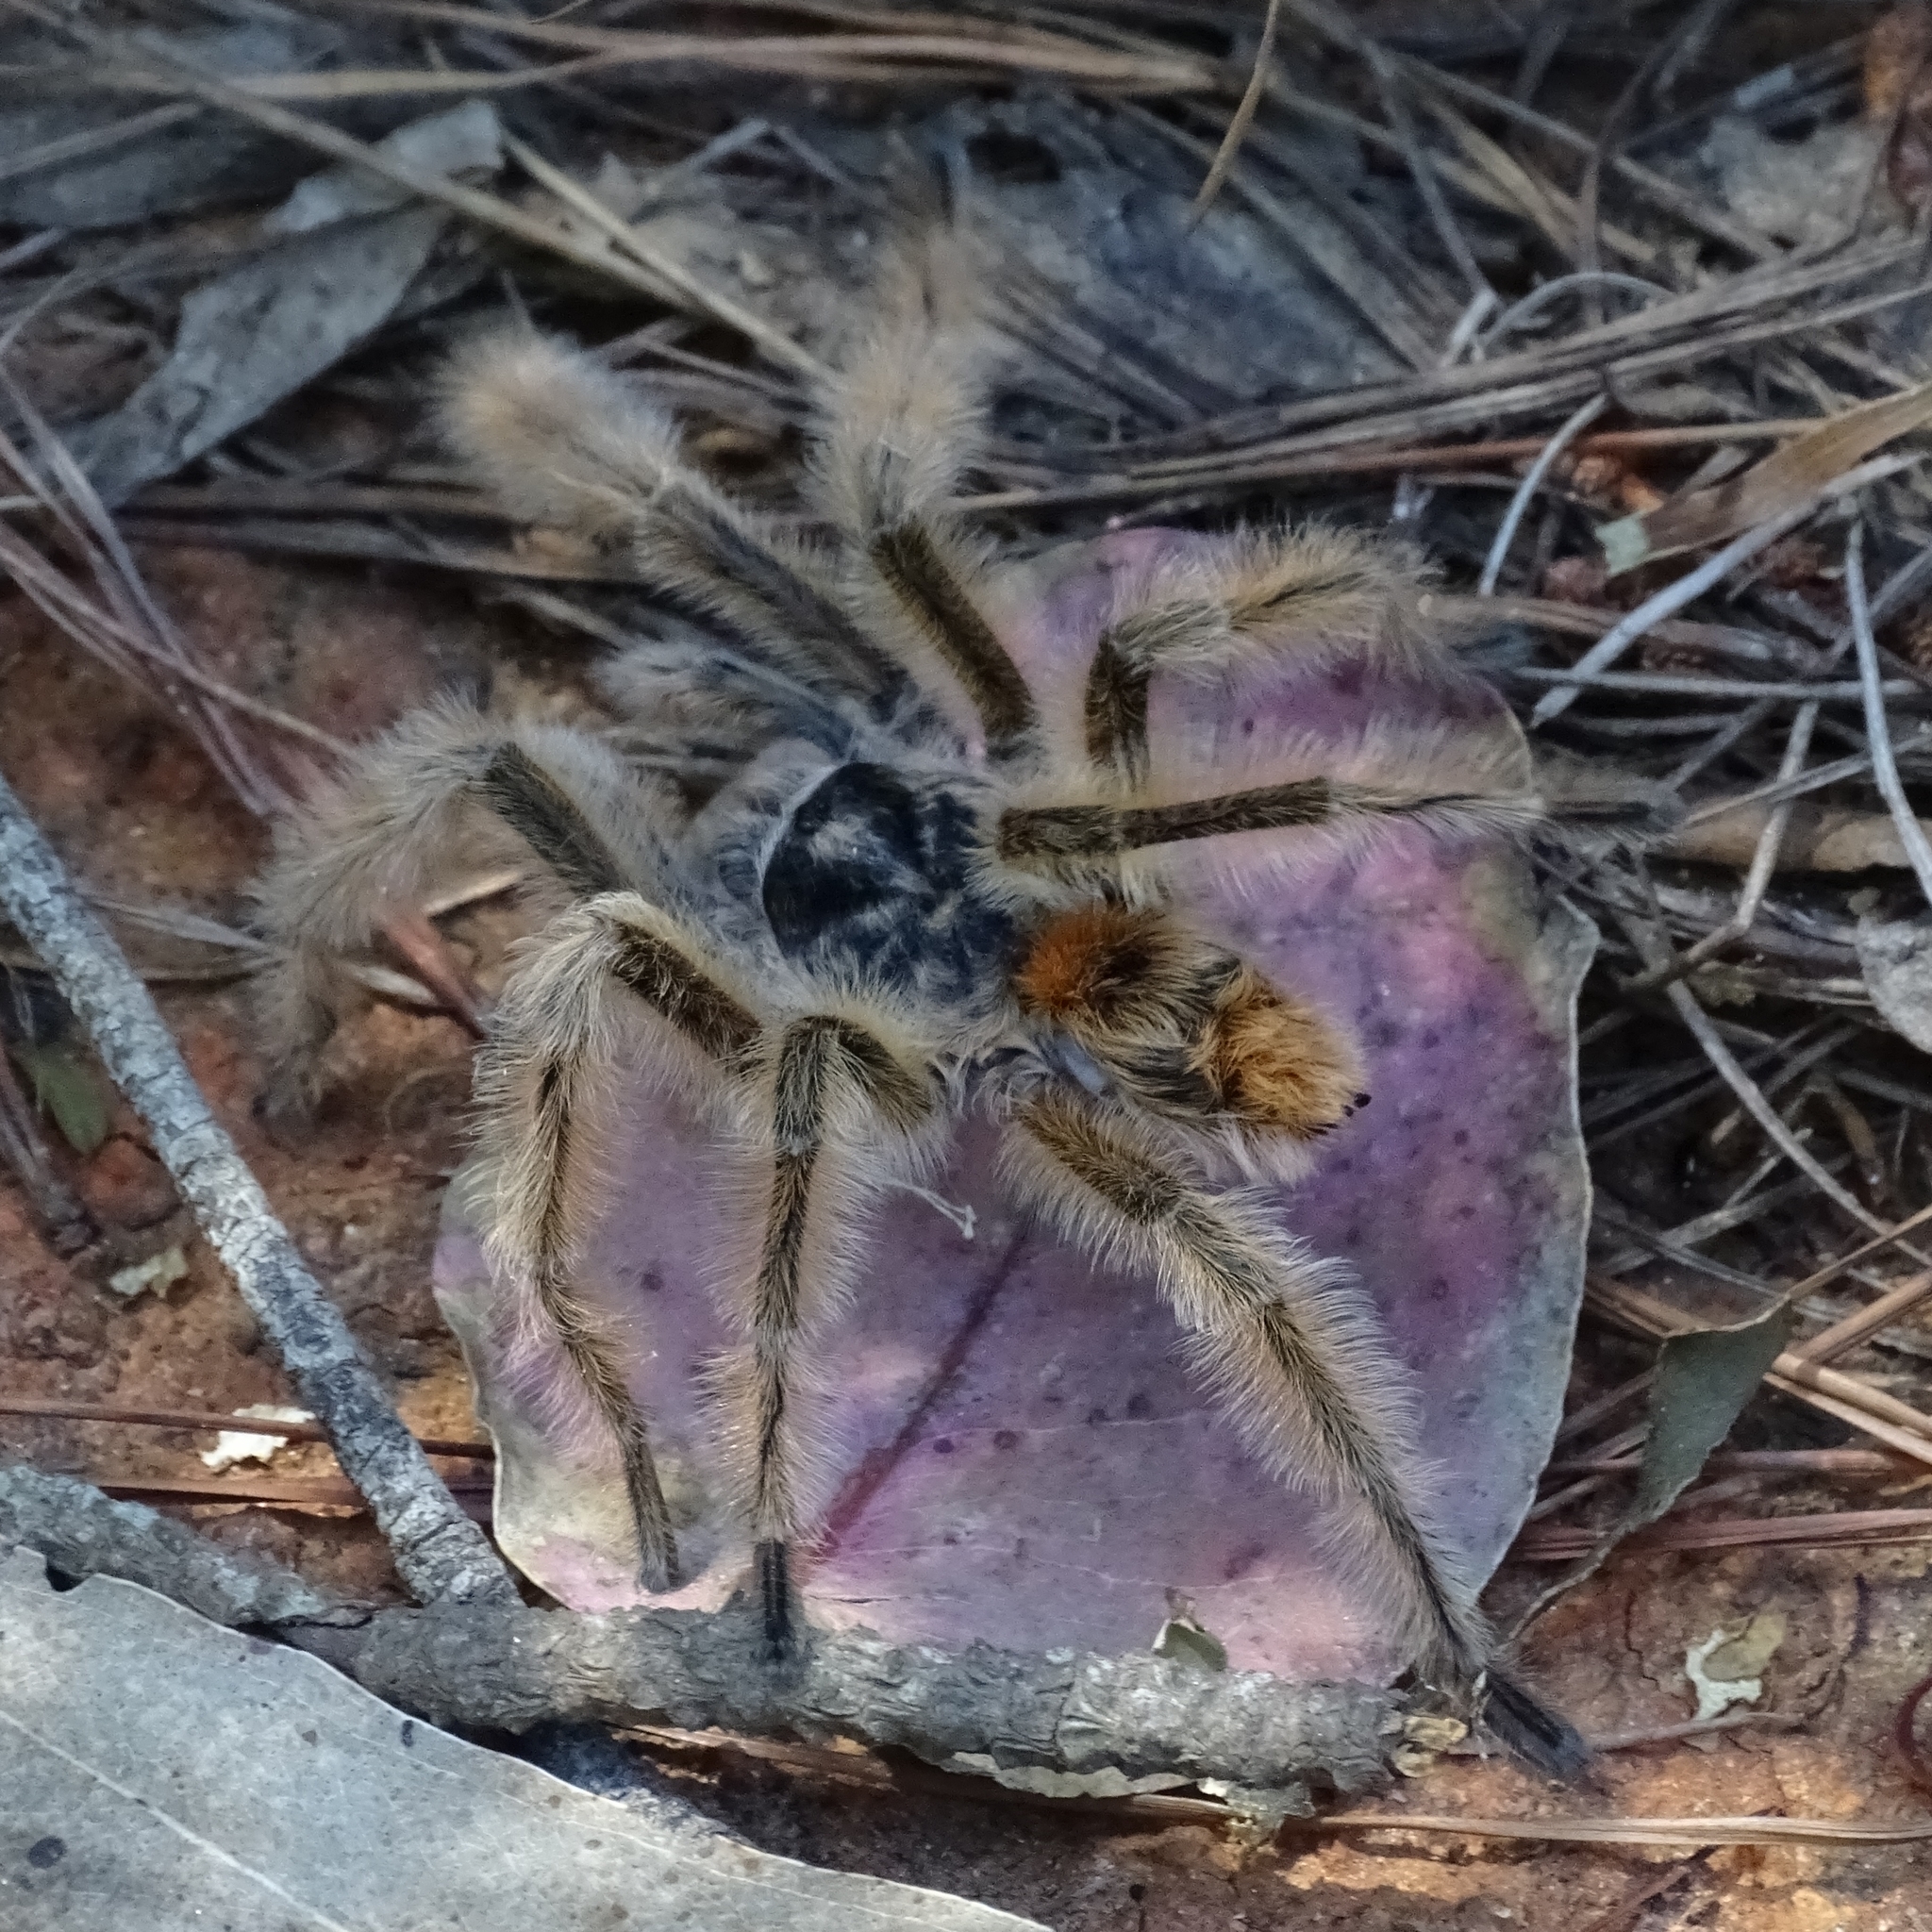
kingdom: Animalia
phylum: Arthropoda
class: Arachnida
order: Araneae
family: Theraphosidae
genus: Phrixotrichus
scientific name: Phrixotrichus vulpinus
